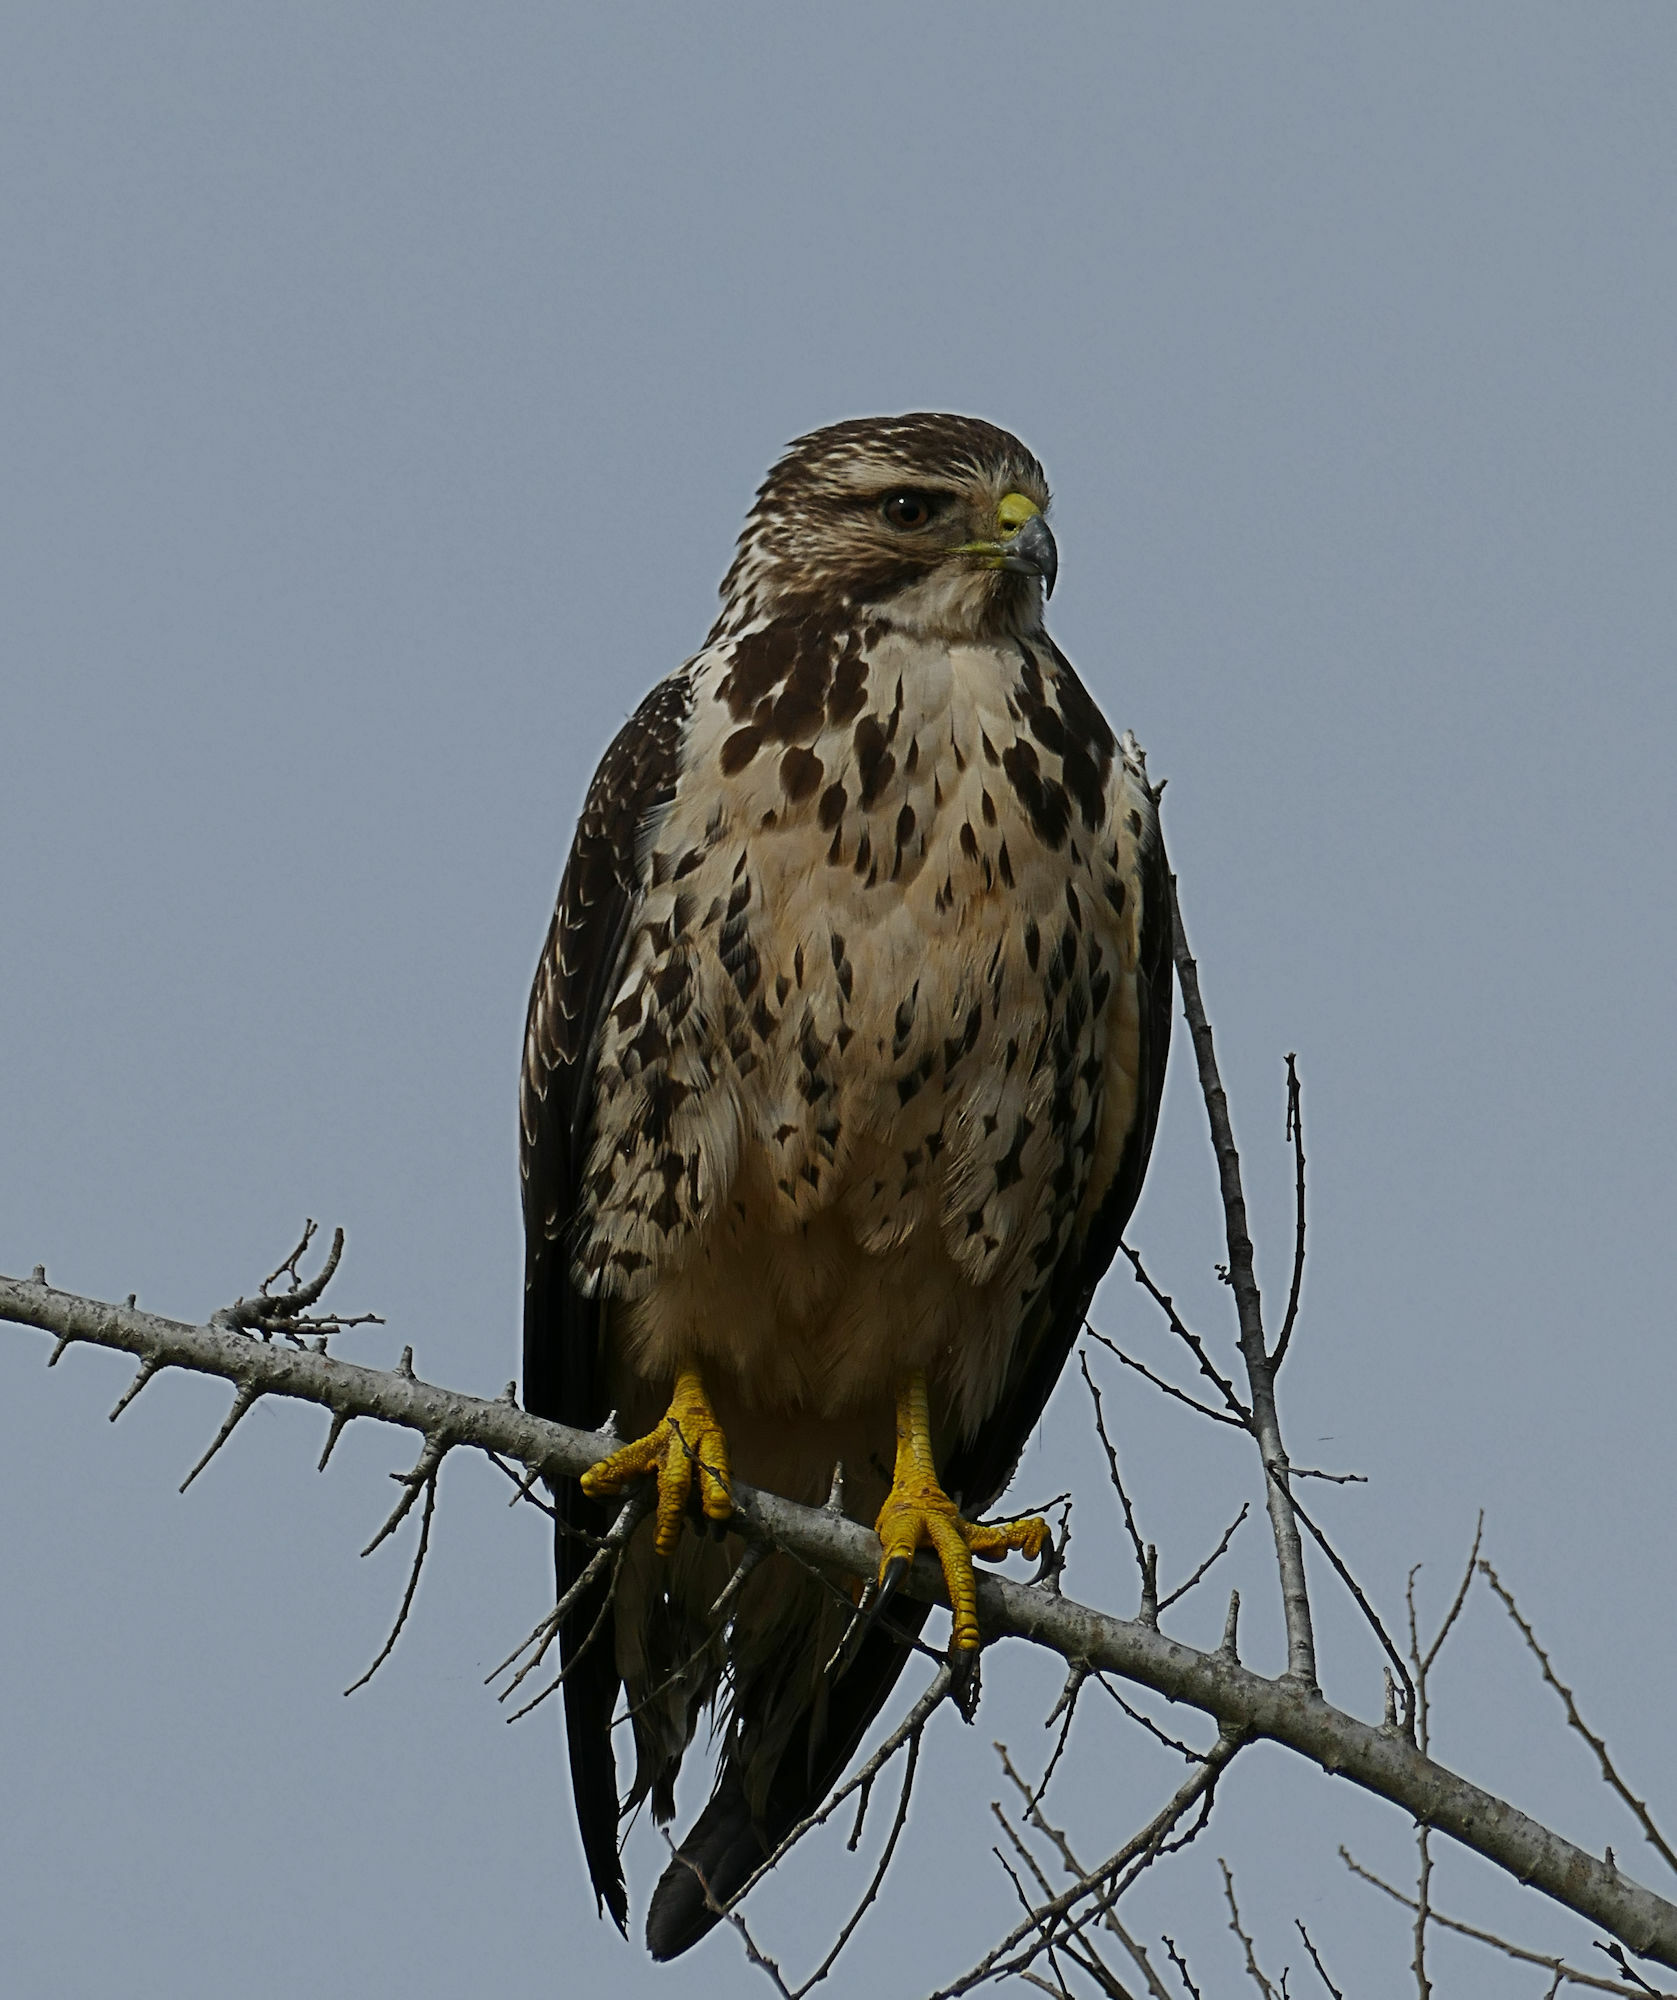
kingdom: Animalia
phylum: Chordata
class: Aves
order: Accipitriformes
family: Accipitridae
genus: Buteo
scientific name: Buteo swainsoni
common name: Swainson's hawk
